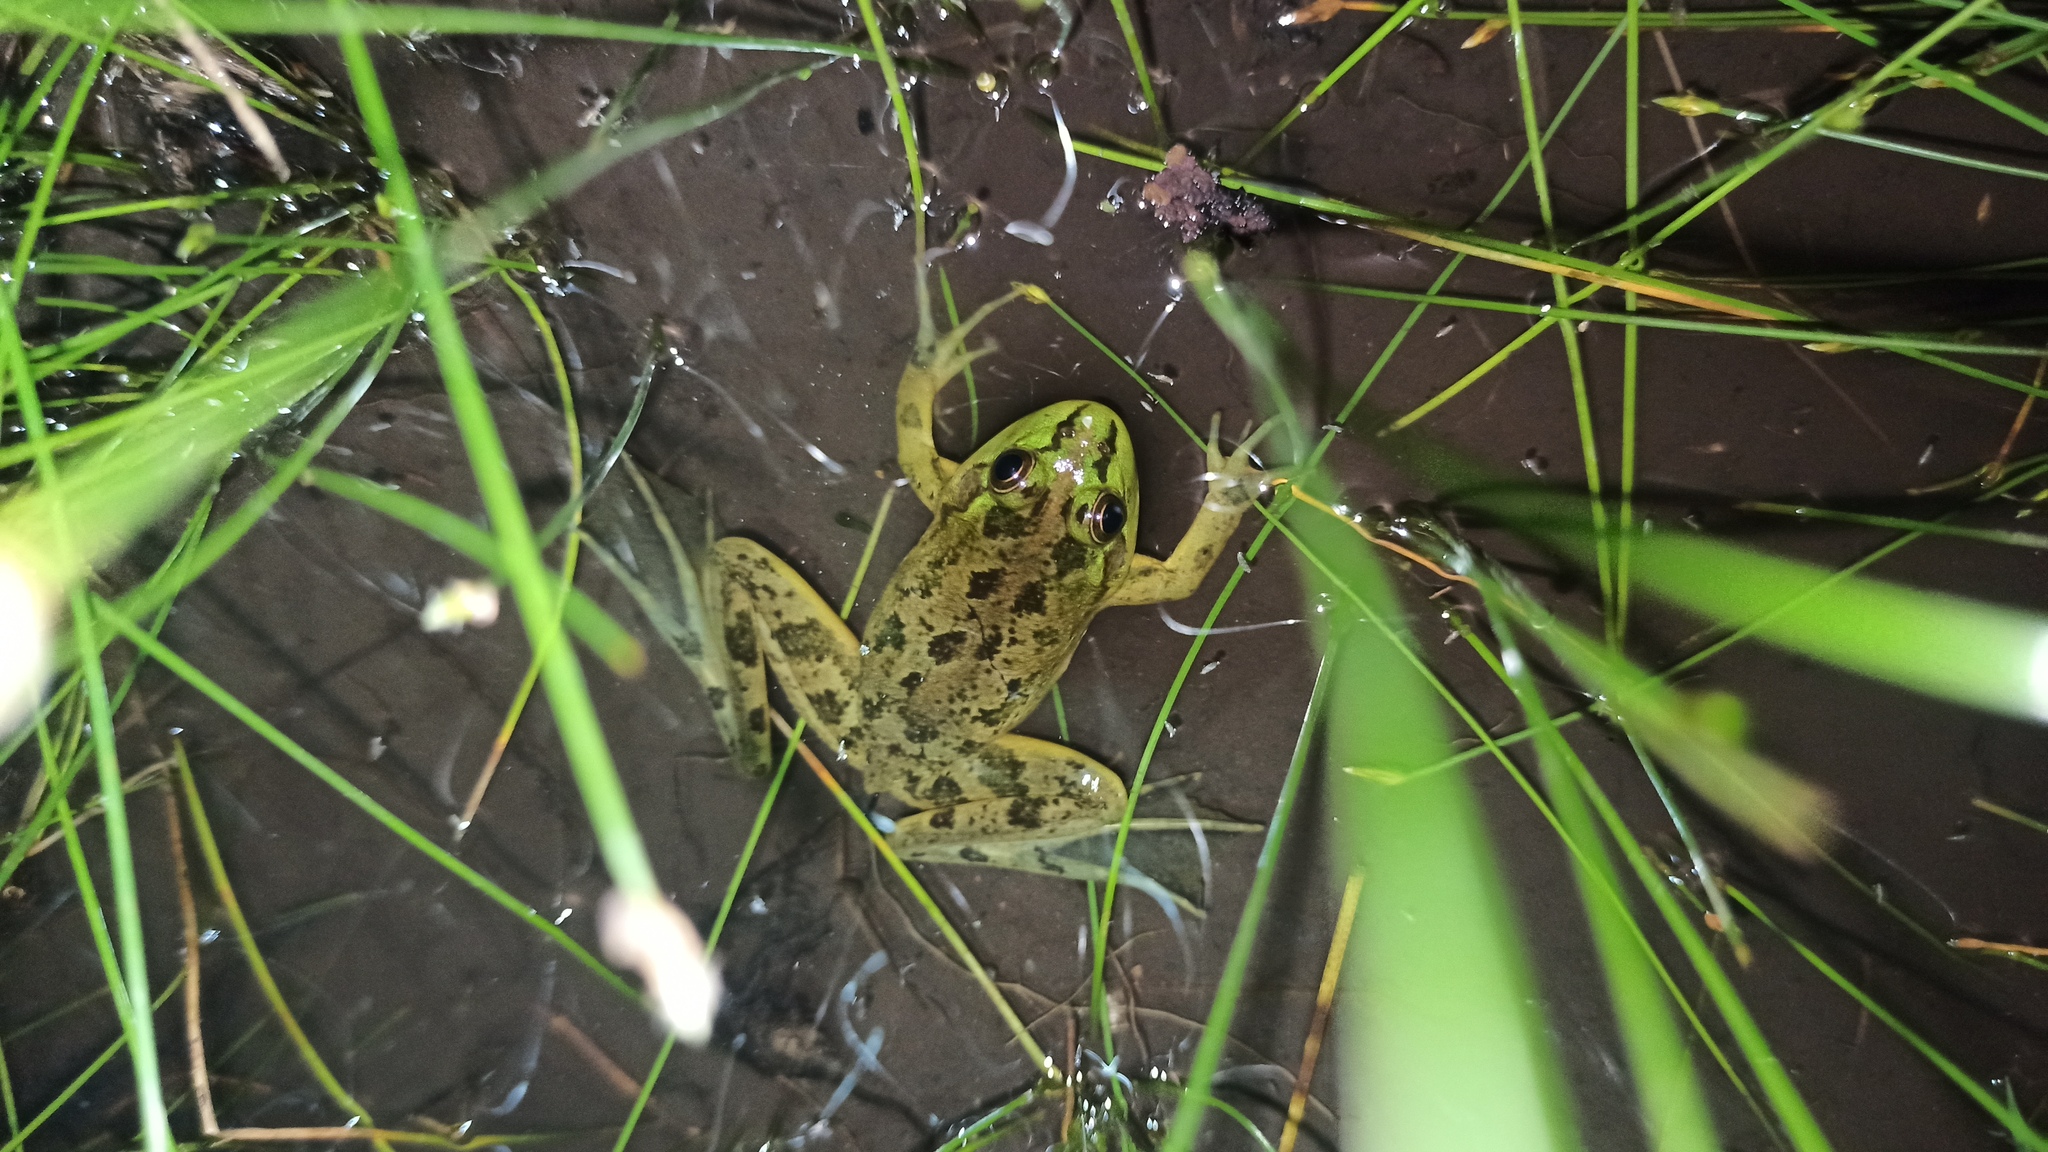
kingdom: Animalia
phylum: Chordata
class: Amphibia
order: Anura
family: Hylidae
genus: Pseudis
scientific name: Pseudis minuta
